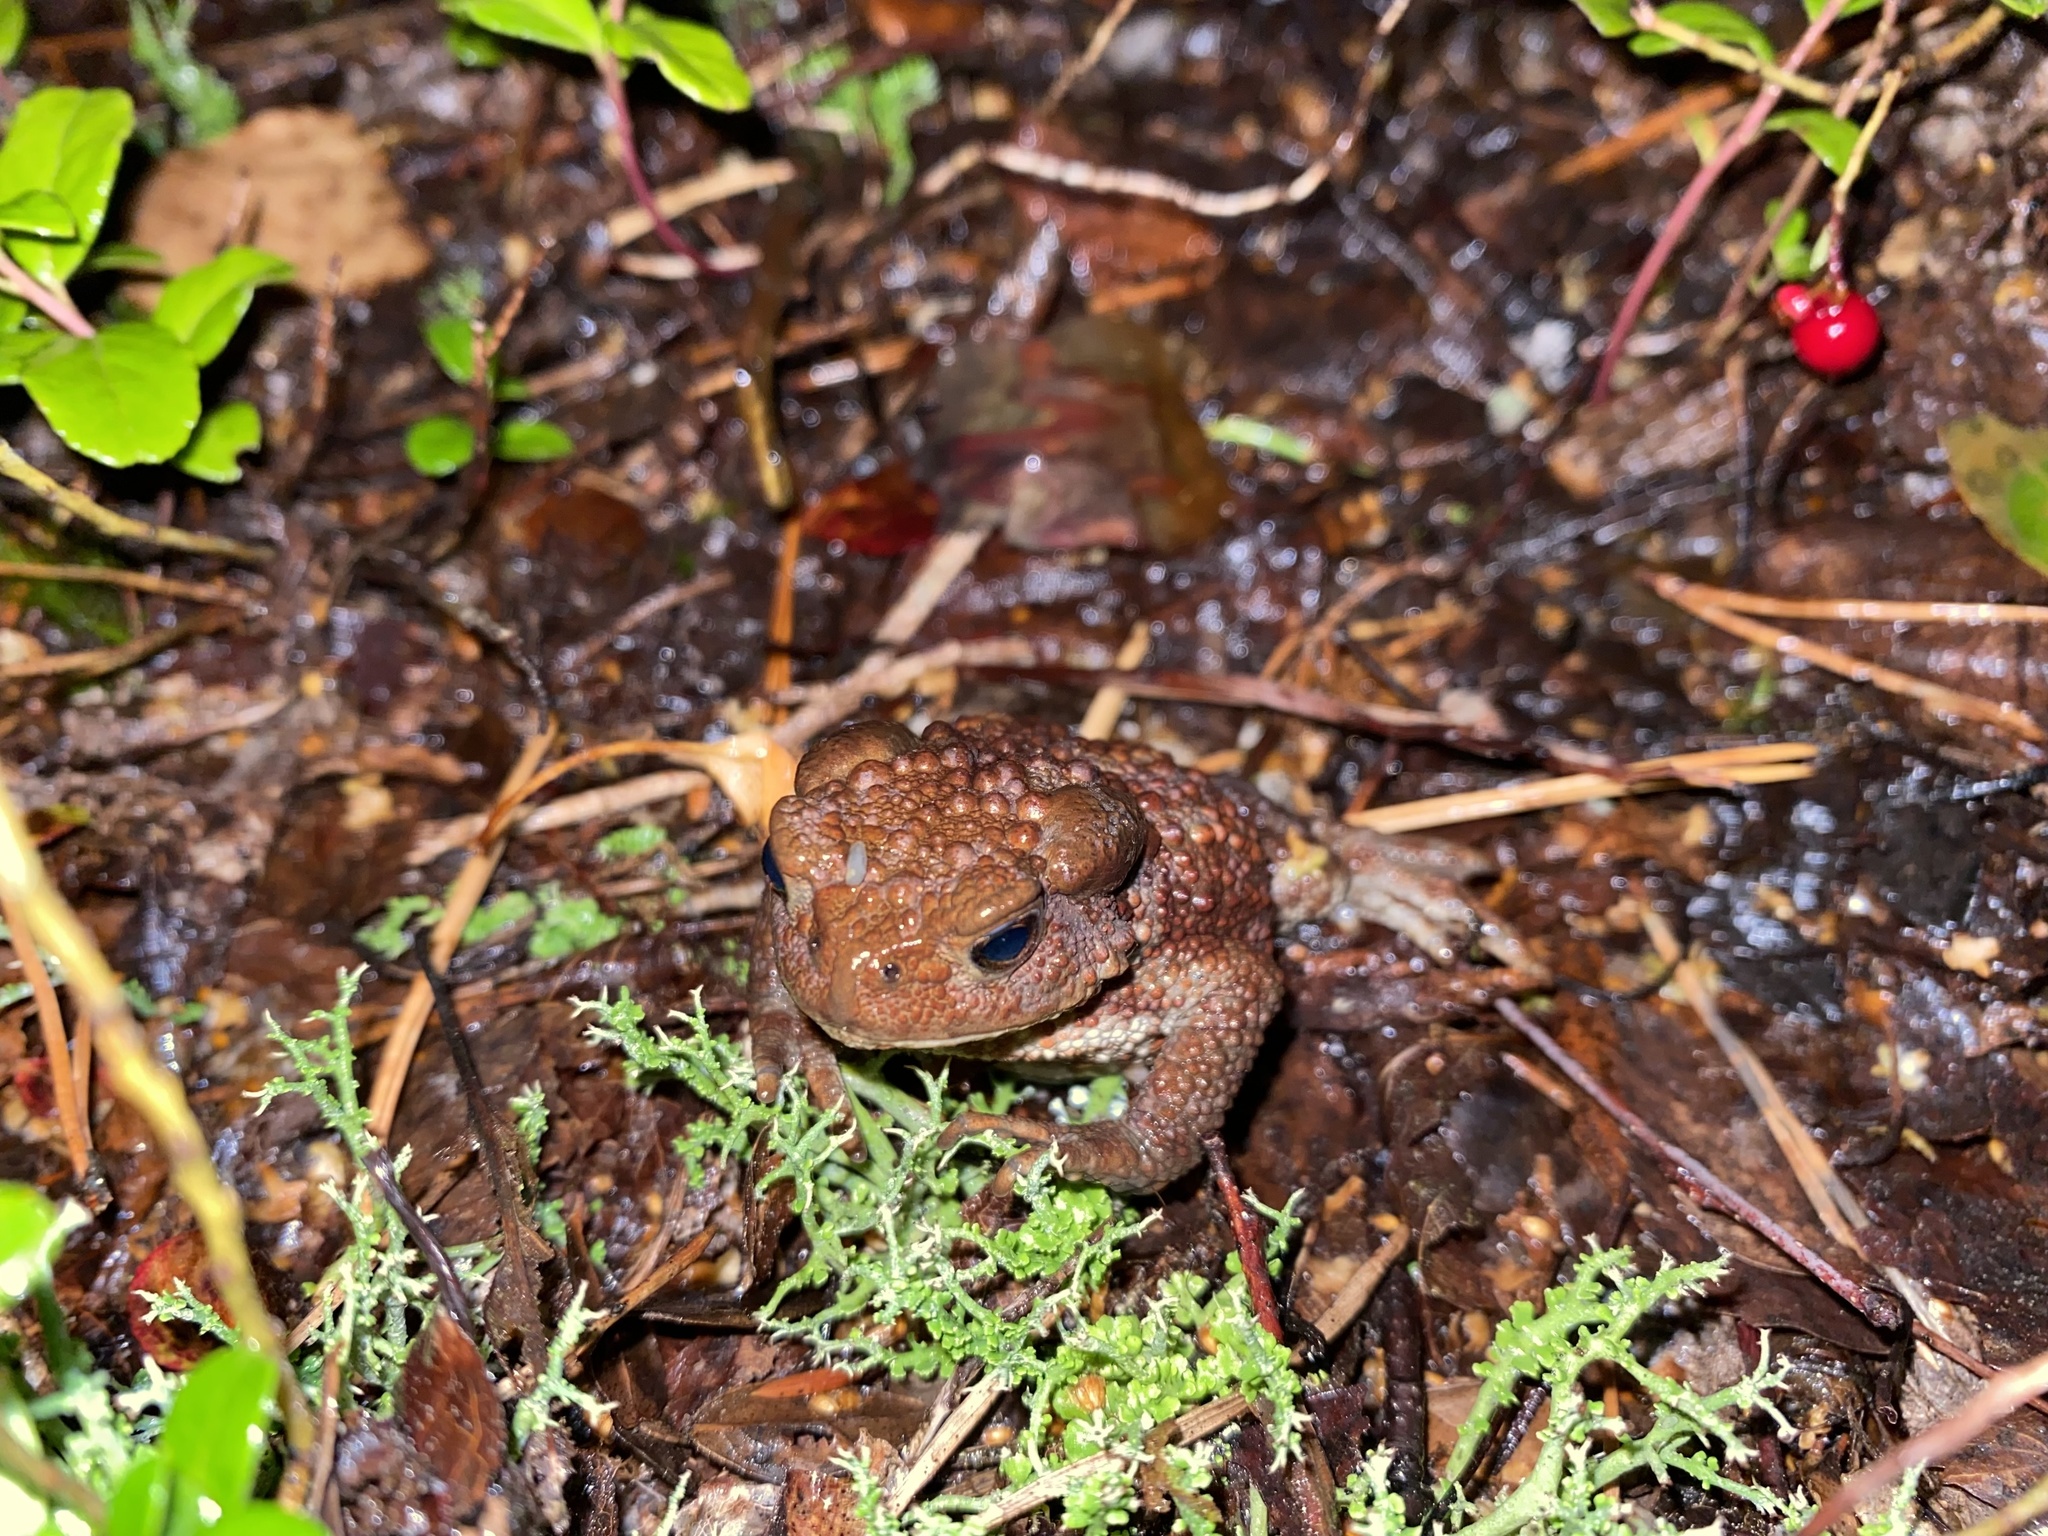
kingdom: Animalia
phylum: Chordata
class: Amphibia
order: Anura
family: Bufonidae
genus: Bufo
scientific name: Bufo bufo
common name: Common toad
